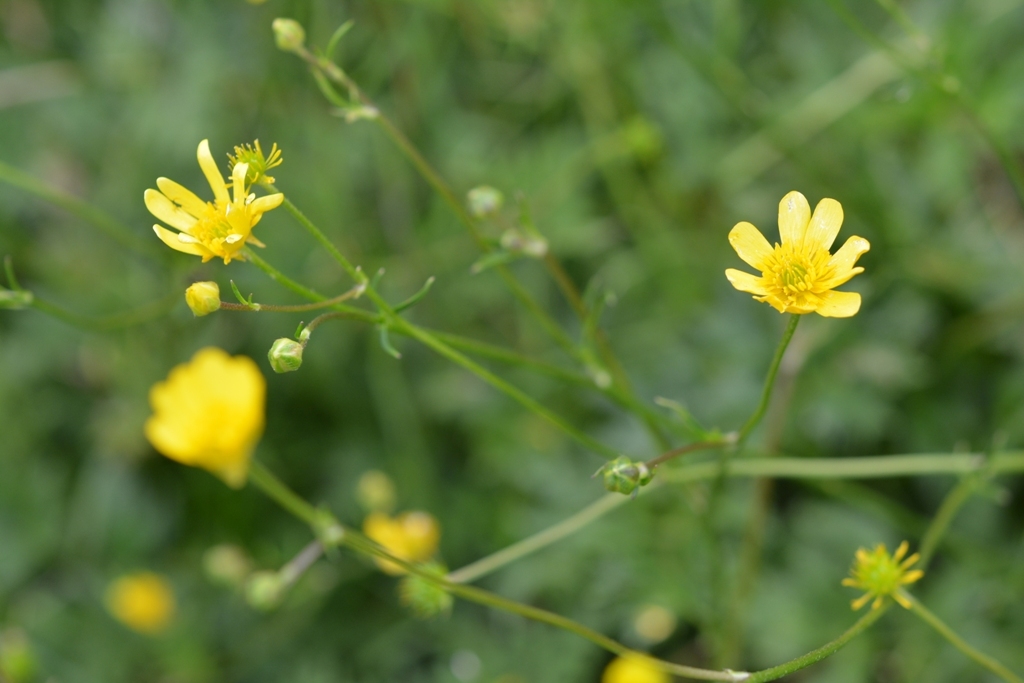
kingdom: Plantae
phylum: Tracheophyta
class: Magnoliopsida
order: Ranunculales
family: Ranunculaceae
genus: Ranunculus
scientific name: Ranunculus petiolaris
